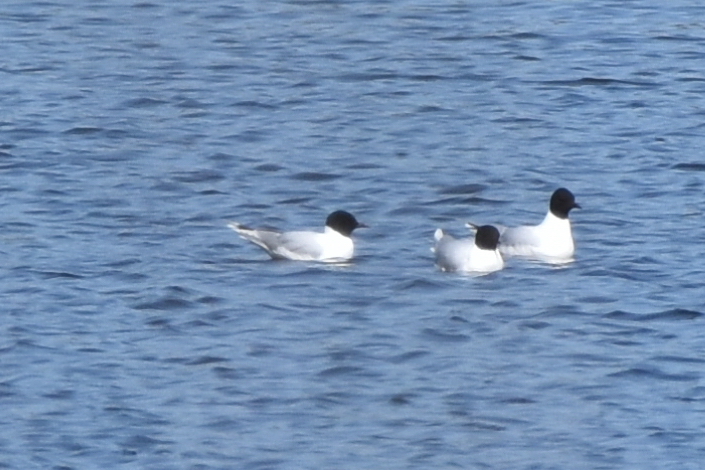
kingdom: Animalia
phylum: Chordata
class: Aves
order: Charadriiformes
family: Laridae
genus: Hydrocoloeus
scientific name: Hydrocoloeus minutus
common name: Little gull
